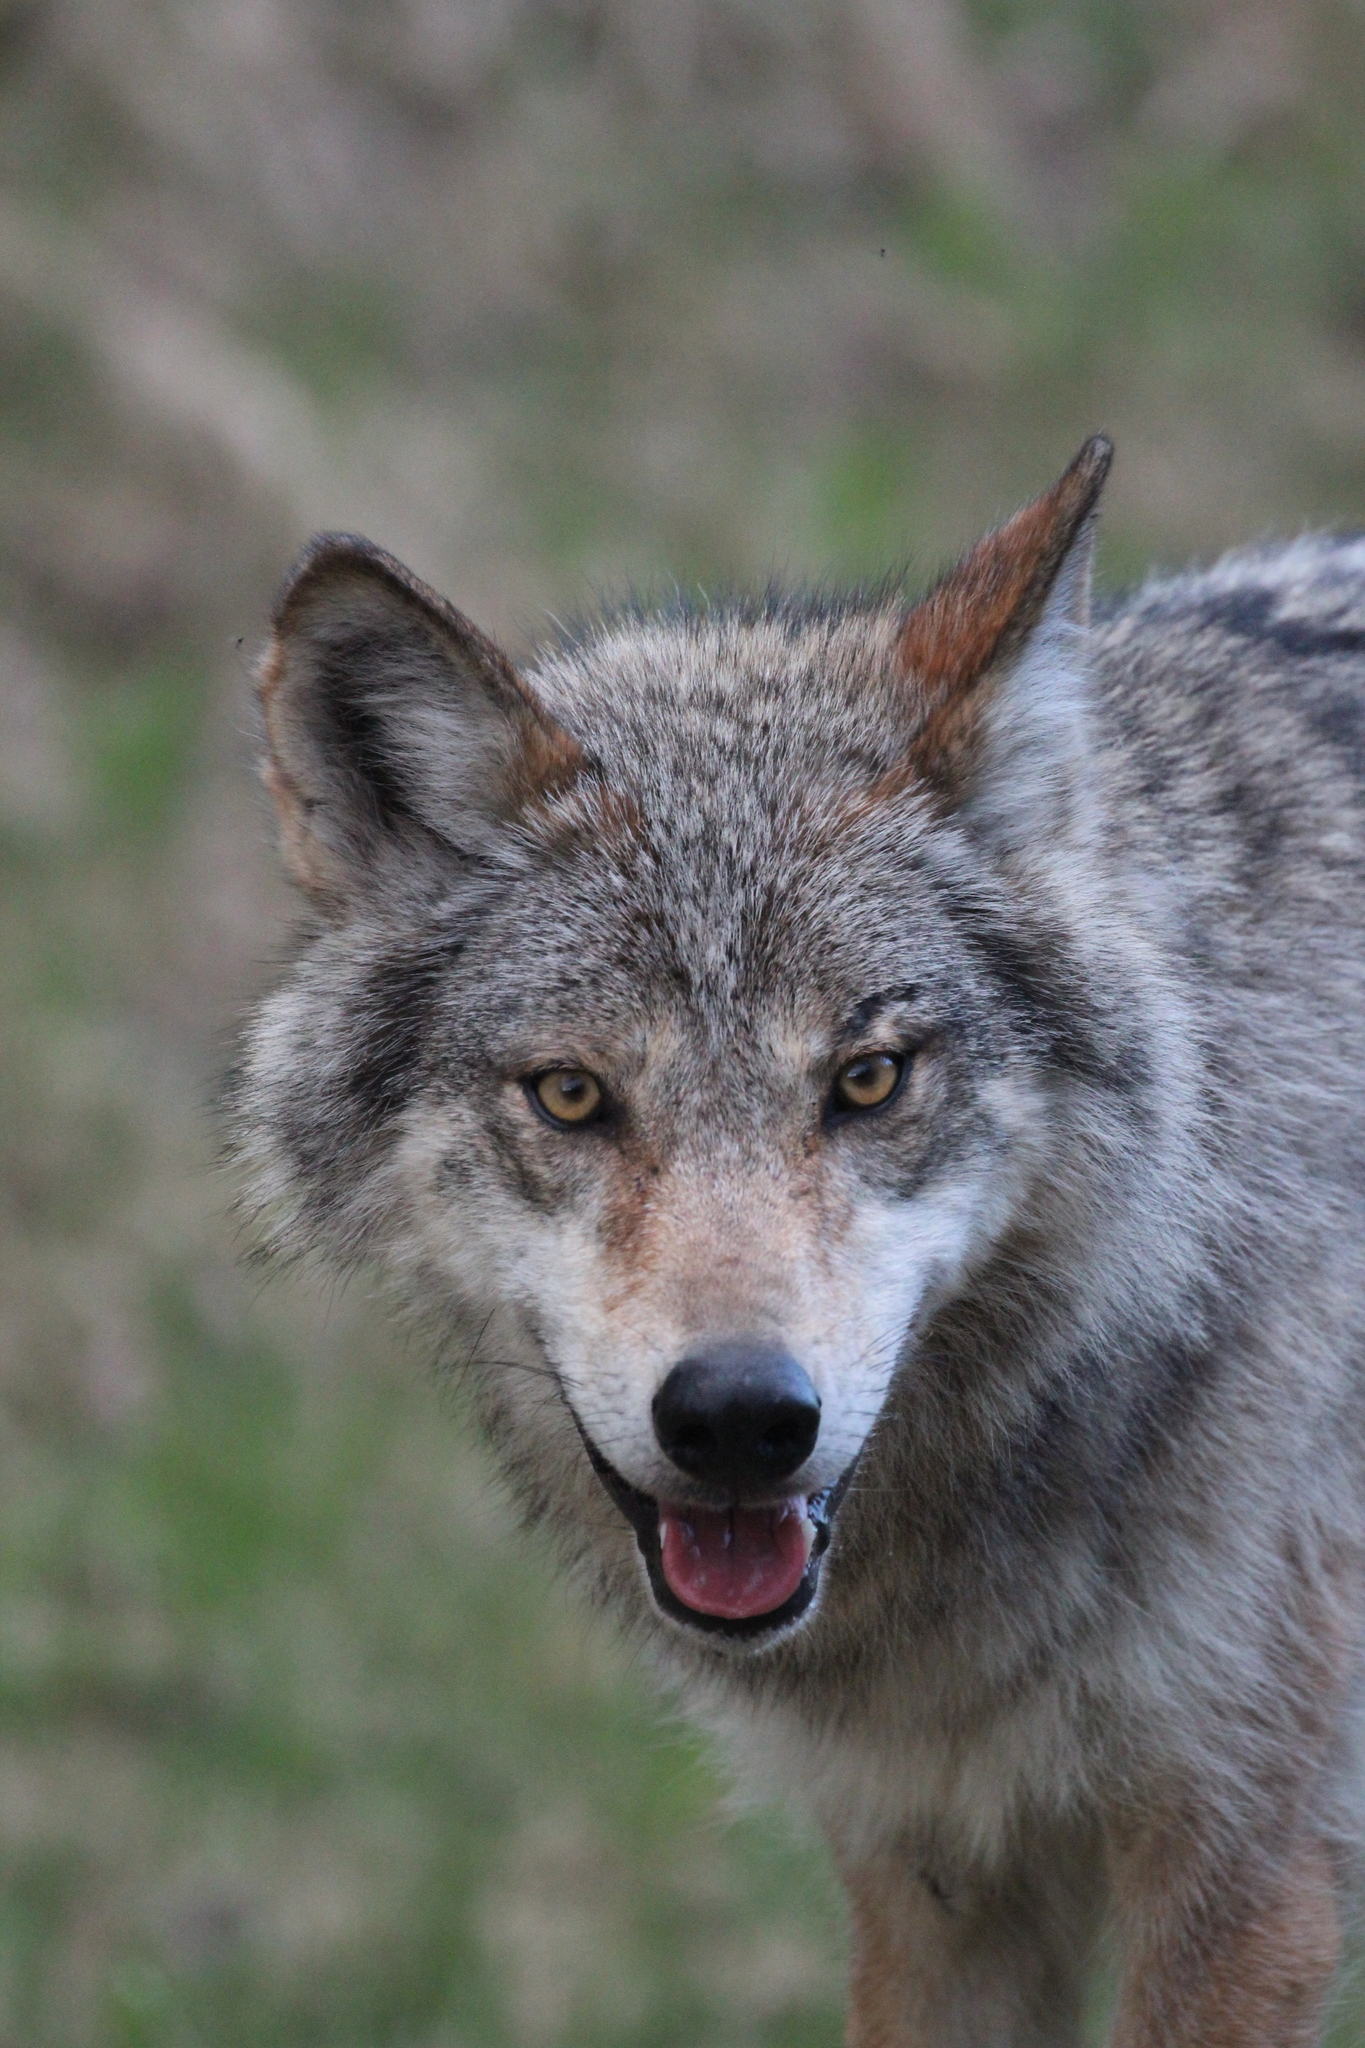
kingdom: Animalia
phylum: Chordata
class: Mammalia
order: Carnivora
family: Canidae
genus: Canis
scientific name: Canis lupus
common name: Gray wolf
